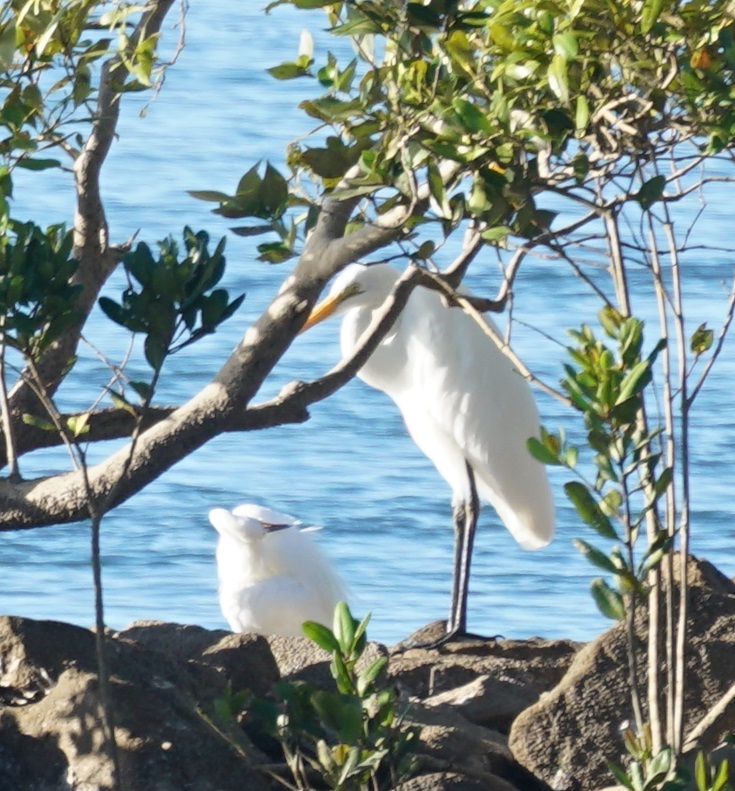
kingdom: Animalia
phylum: Chordata
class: Aves
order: Pelecaniformes
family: Ardeidae
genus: Ardea
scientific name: Ardea alba
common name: Great egret
